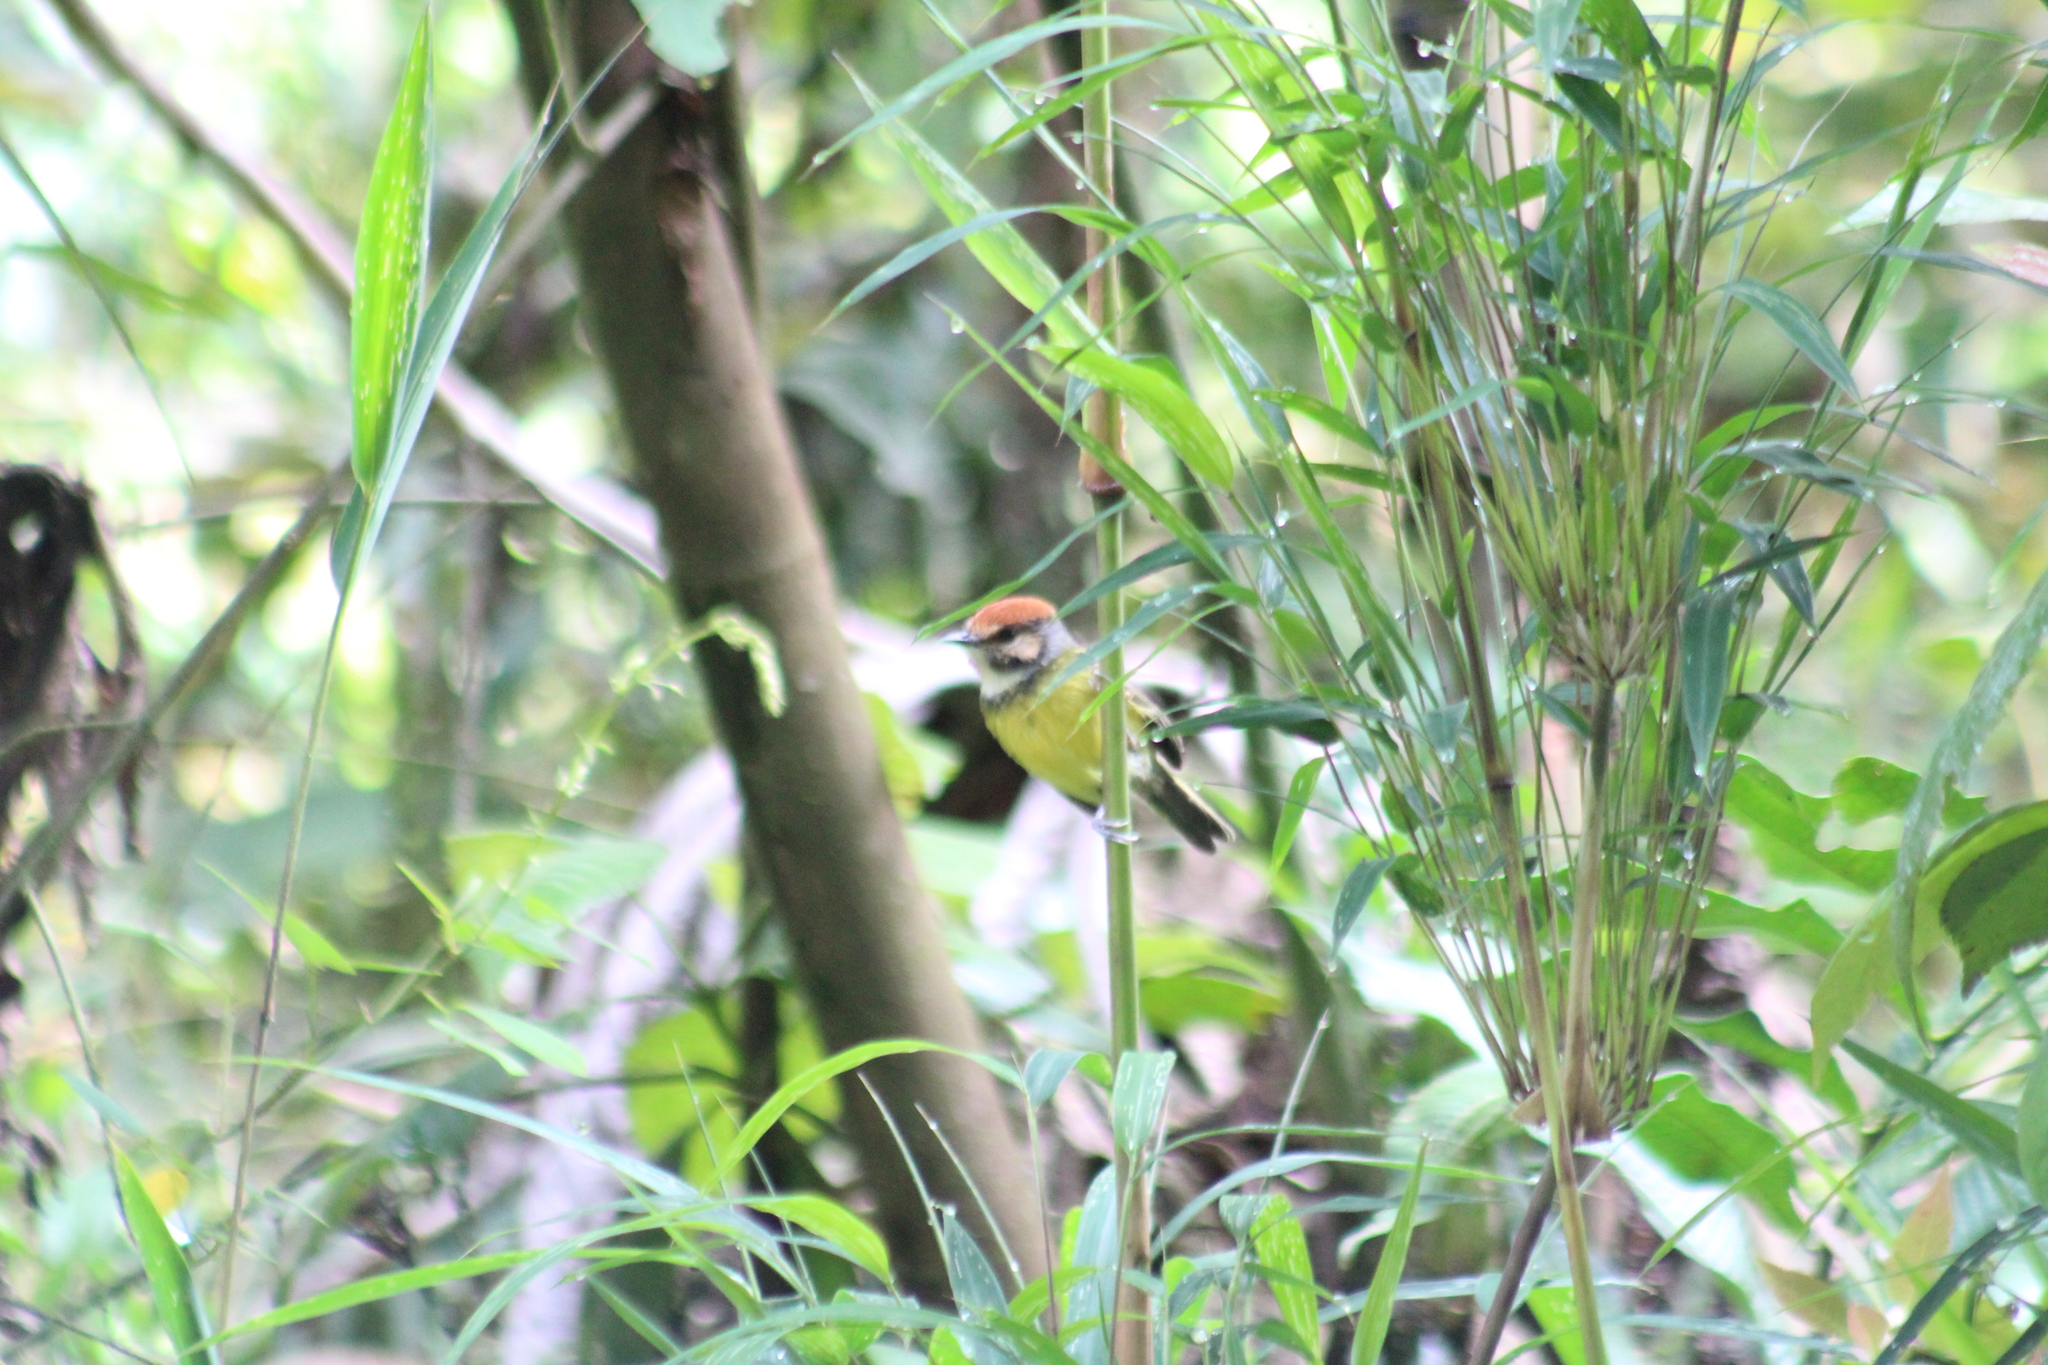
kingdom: Animalia
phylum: Chordata
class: Aves
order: Passeriformes
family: Tyrannidae
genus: Poecilotriccus
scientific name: Poecilotriccus ruficeps
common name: Rufous-crowned tody-flycatcher
